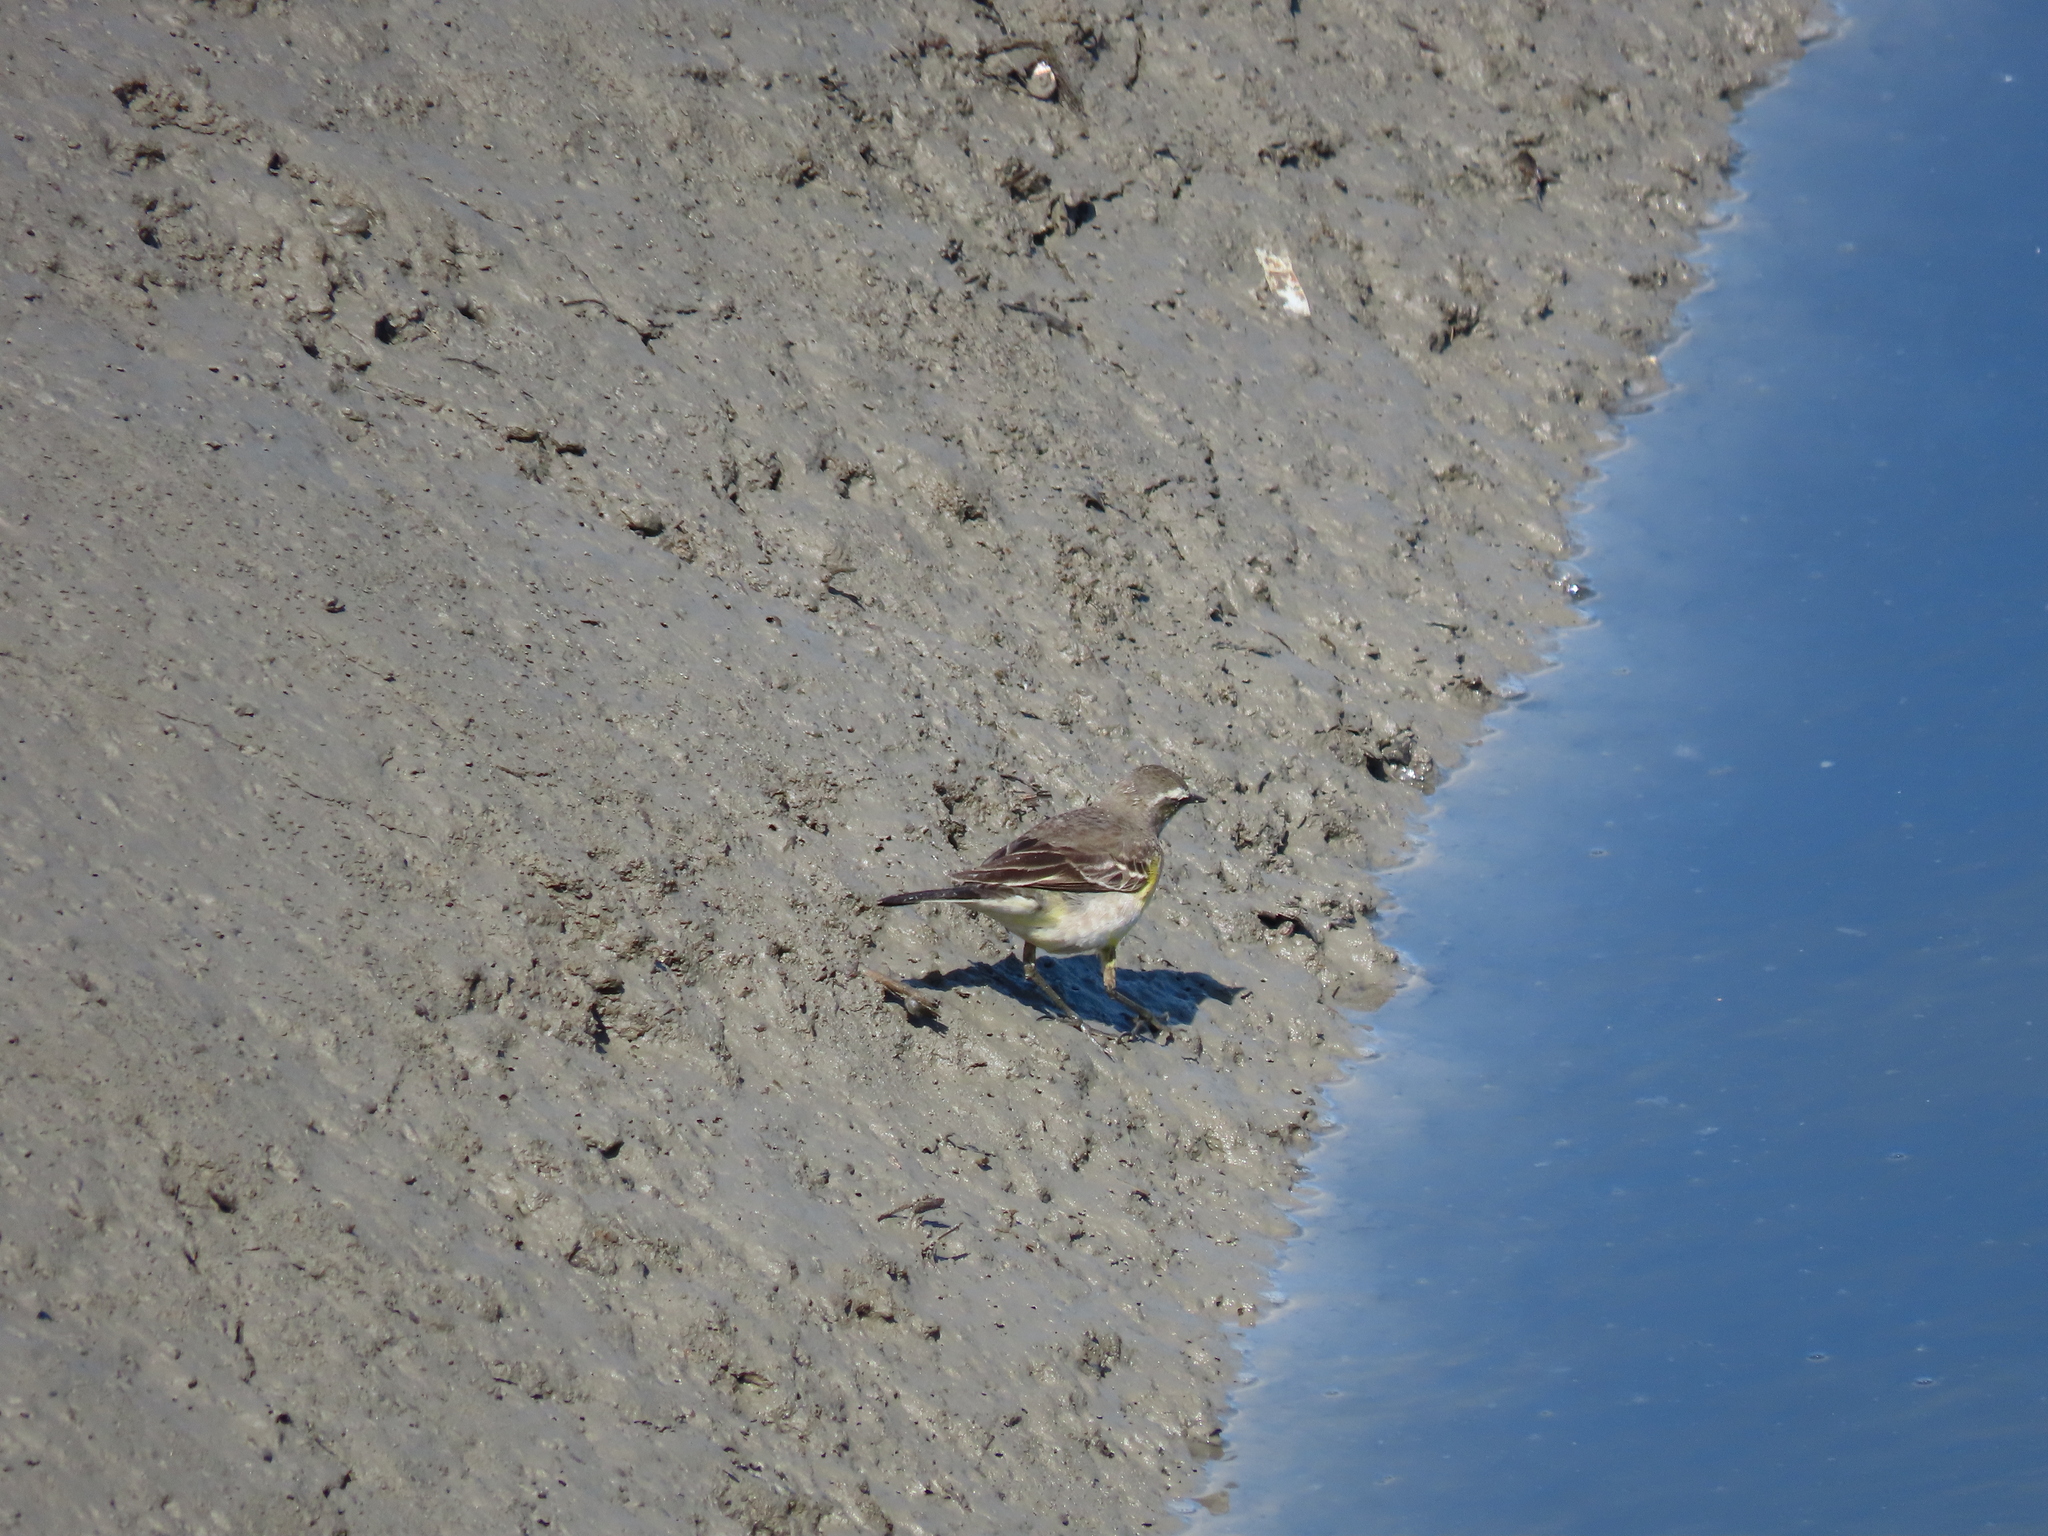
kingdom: Animalia
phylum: Chordata
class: Aves
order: Passeriformes
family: Motacillidae
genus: Motacilla
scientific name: Motacilla tschutschensis
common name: Eastern yellow wagtail
